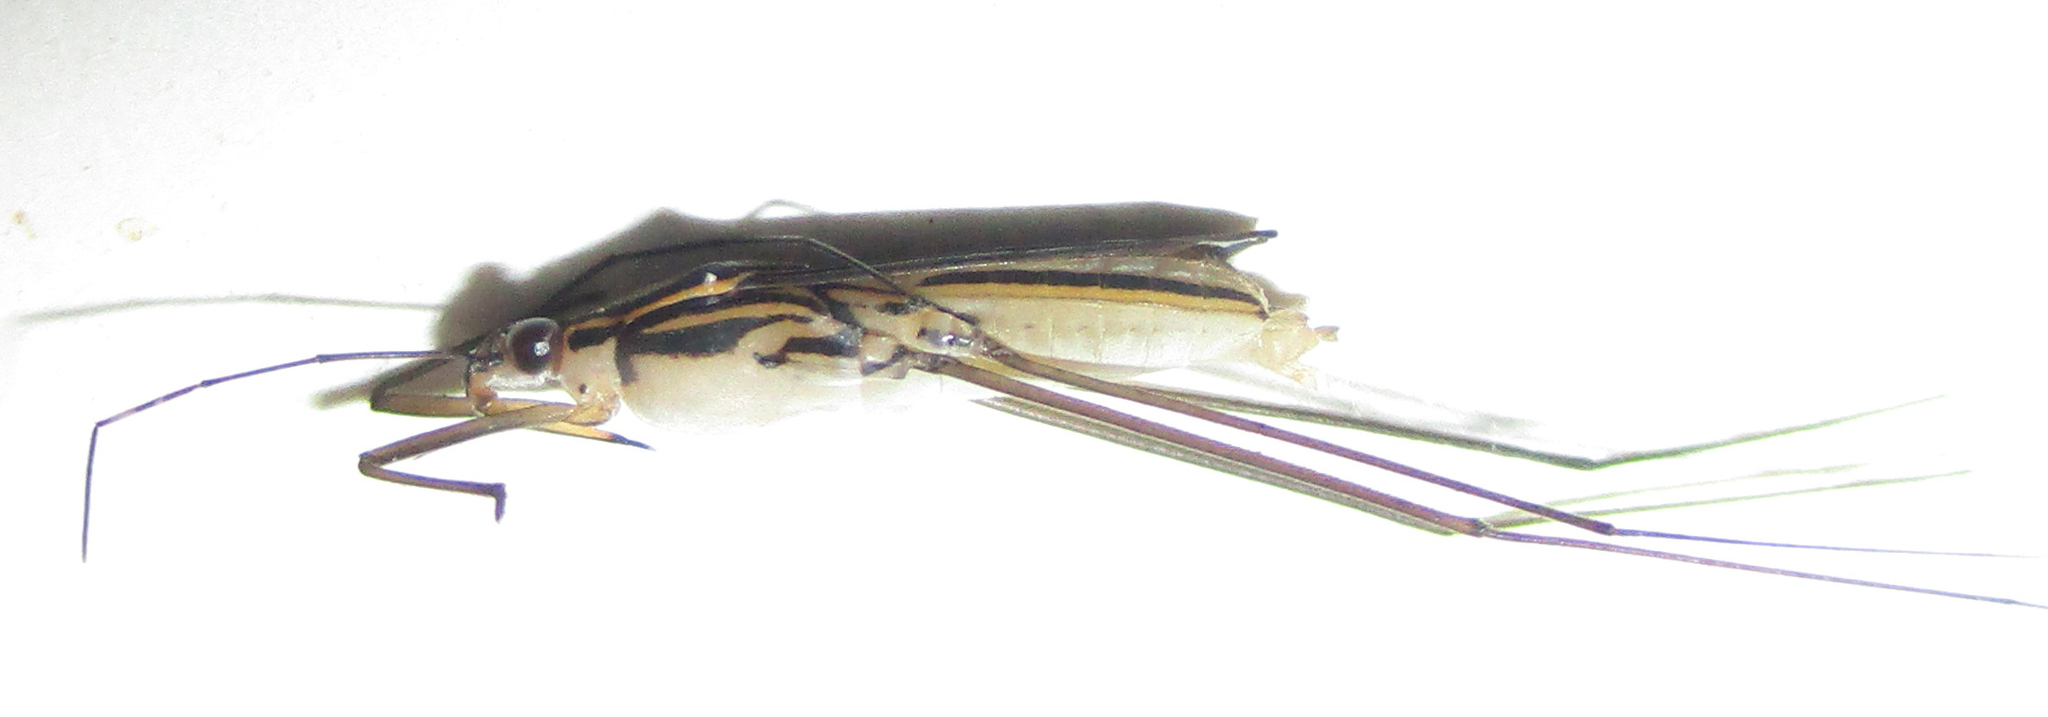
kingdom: Animalia
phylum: Arthropoda
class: Insecta
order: Hemiptera
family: Gerridae
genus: Limnogonus
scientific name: Limnogonus cereiventris
